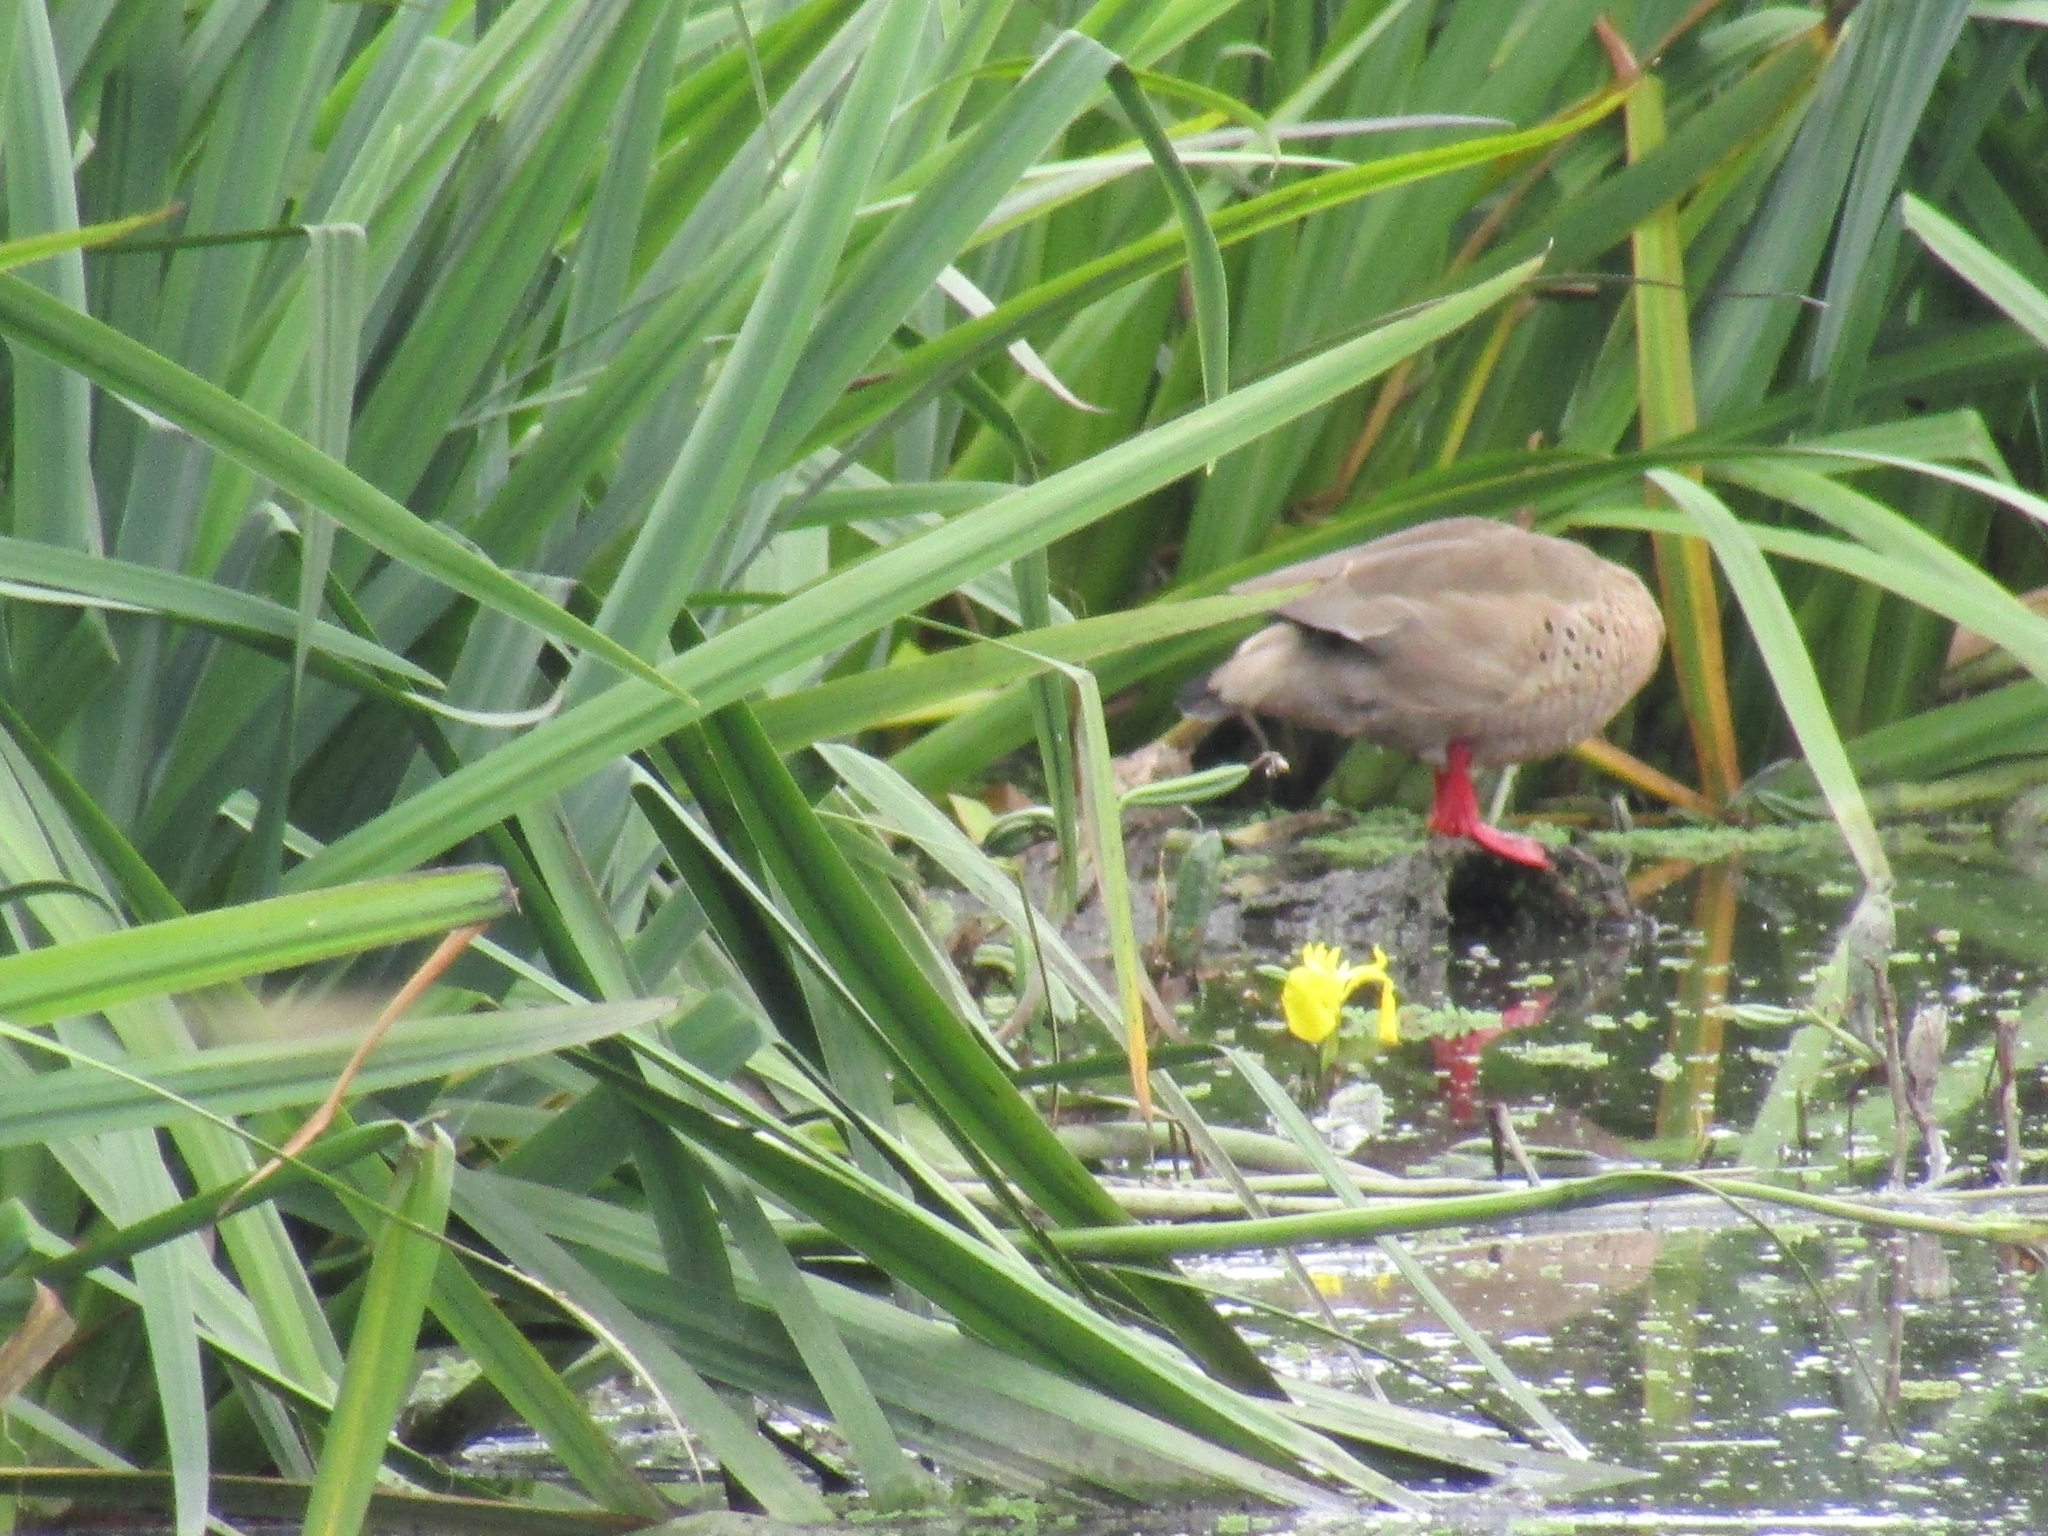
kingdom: Animalia
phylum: Chordata
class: Aves
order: Anseriformes
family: Anatidae
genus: Amazonetta
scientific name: Amazonetta brasiliensis
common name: Brazilian teal
